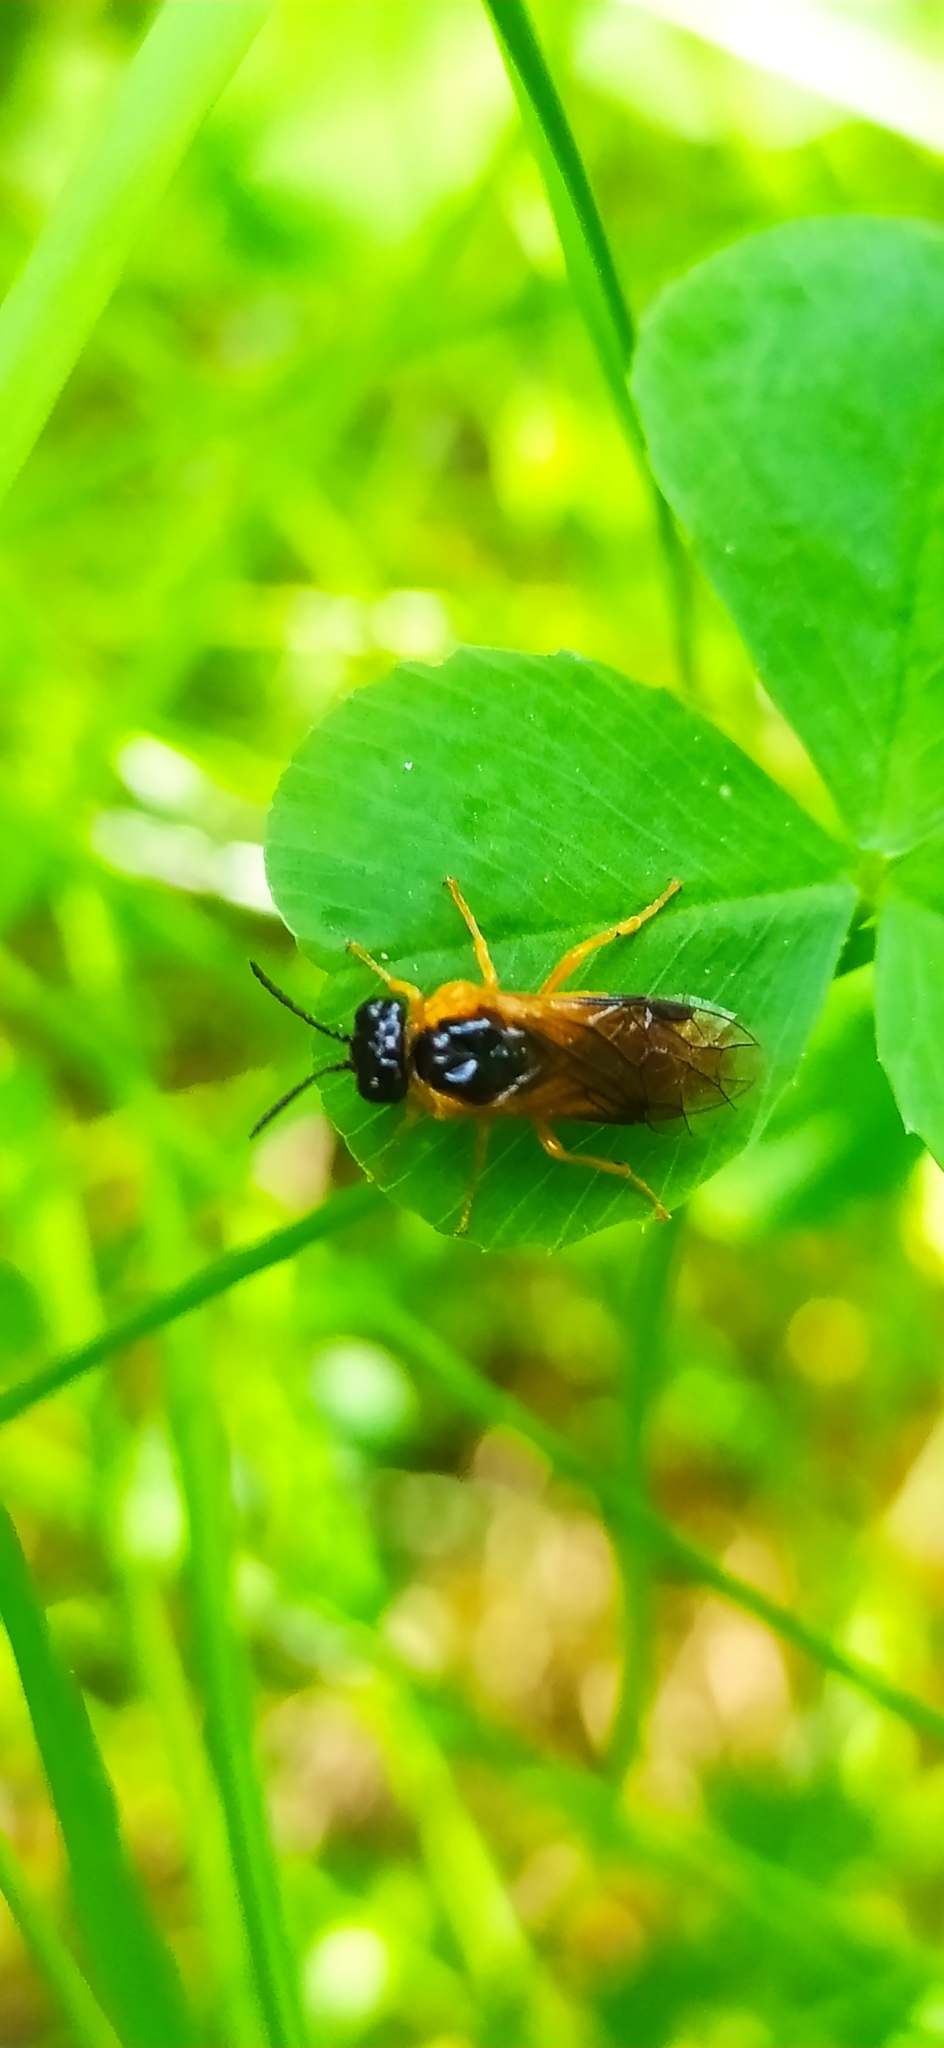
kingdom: Animalia
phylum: Arthropoda
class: Insecta
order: Hymenoptera
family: Tenthredinidae
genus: Selandria
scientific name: Selandria serva
